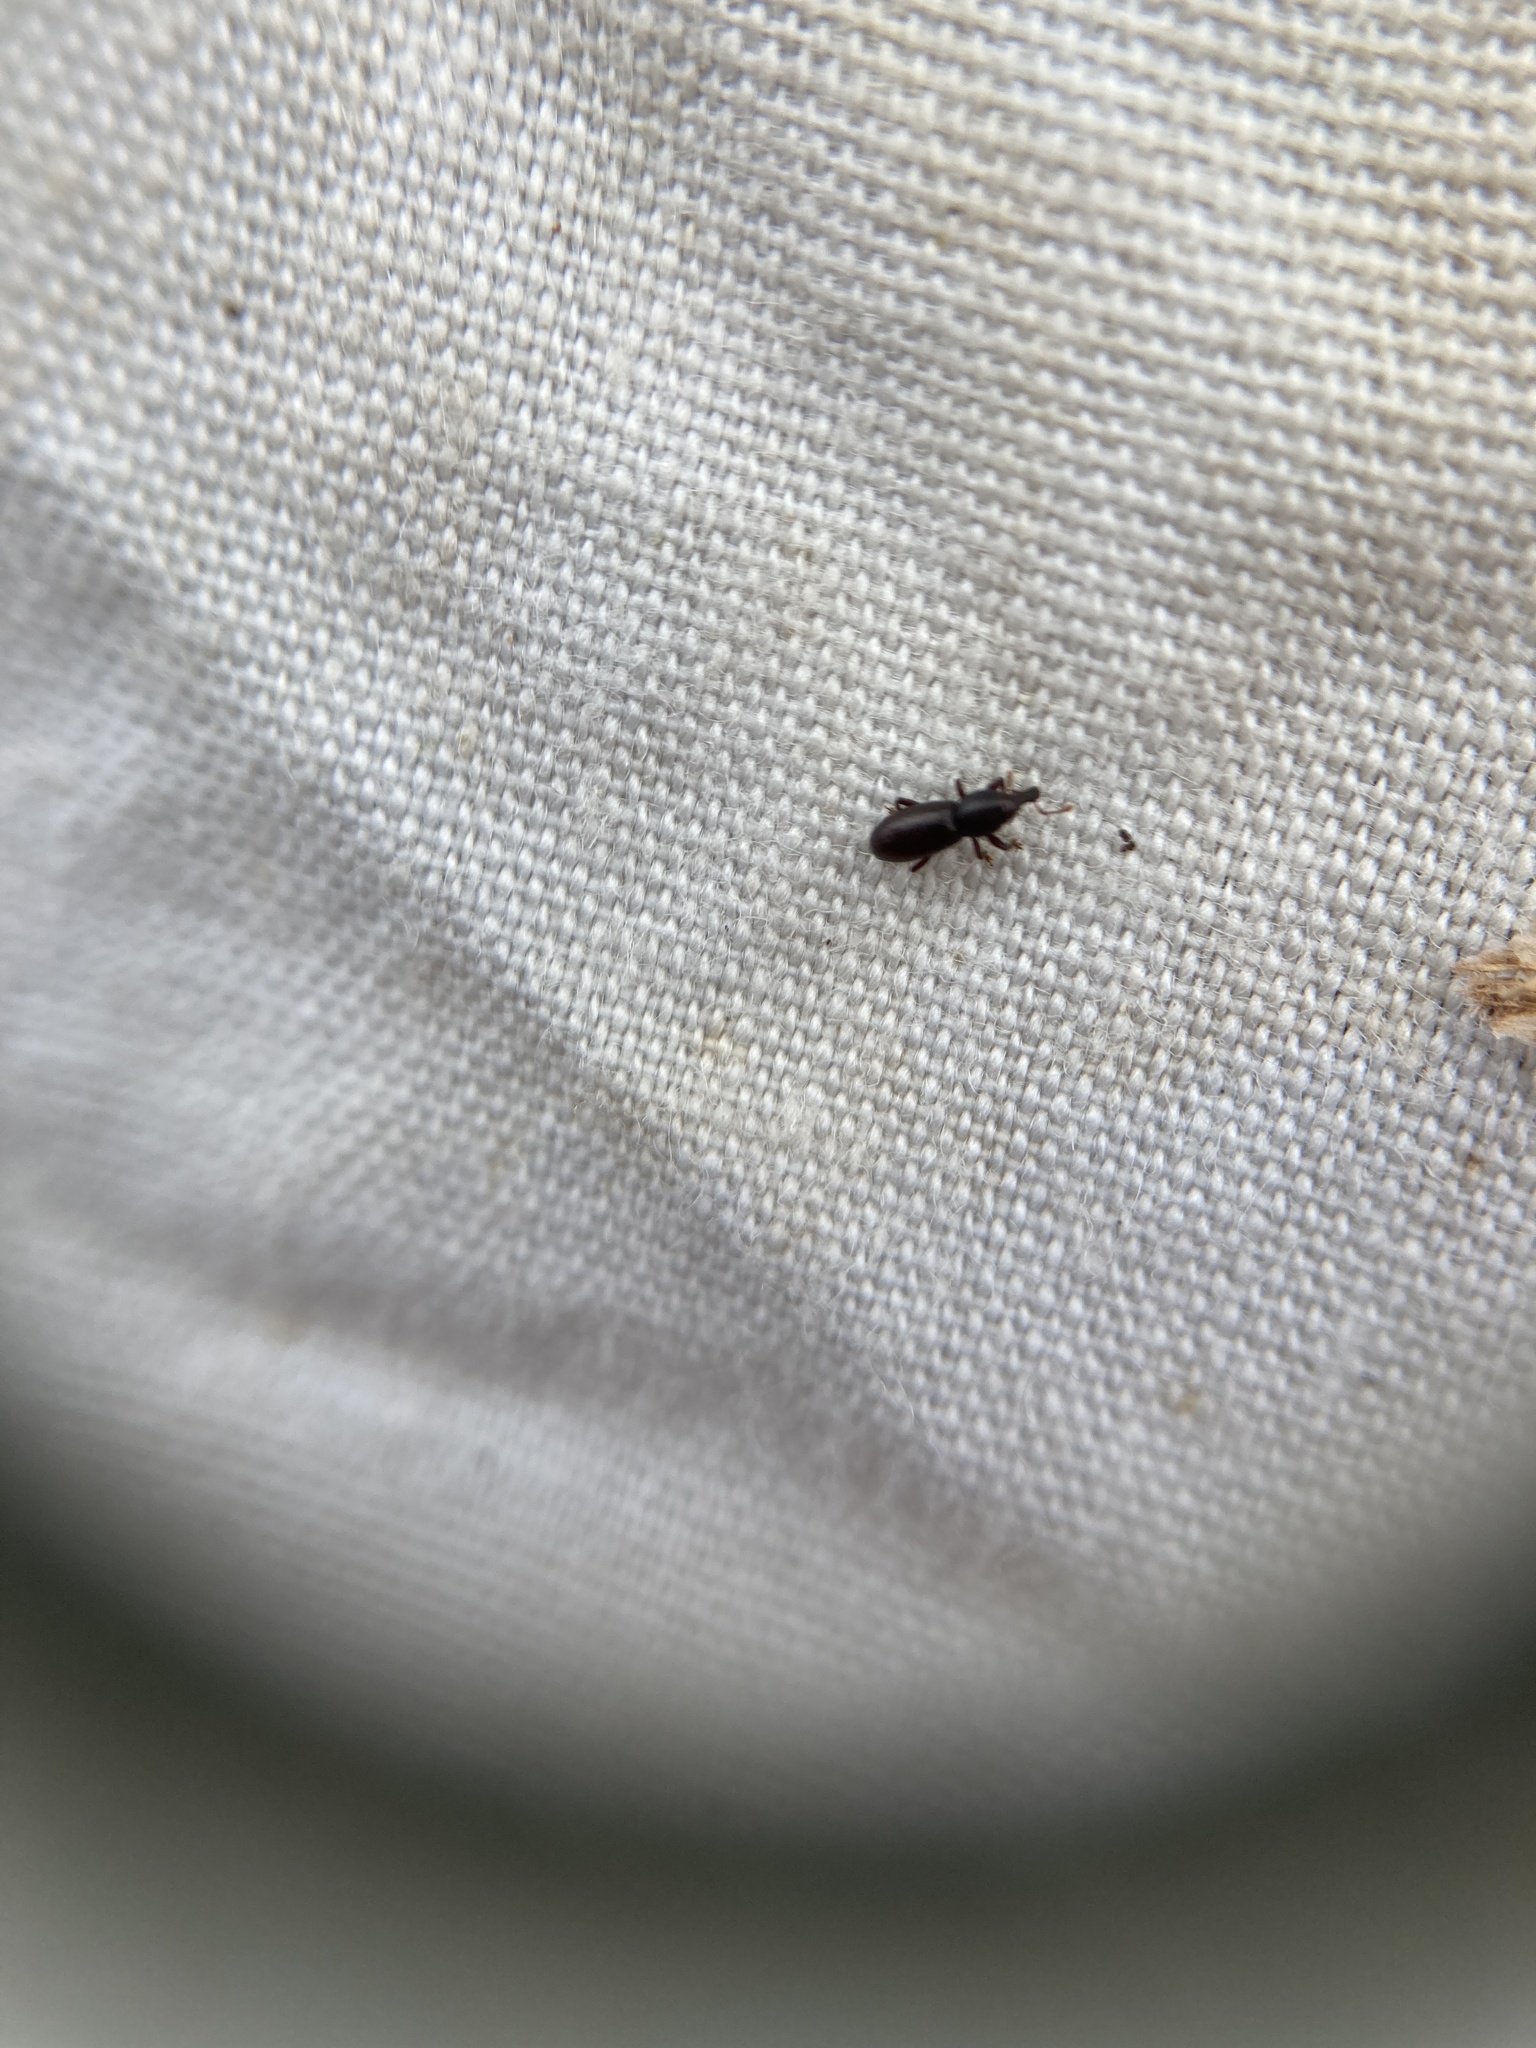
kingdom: Animalia
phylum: Arthropoda
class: Insecta
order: Coleoptera
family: Curculionidae
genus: Microtribus
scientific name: Microtribus huttoni
